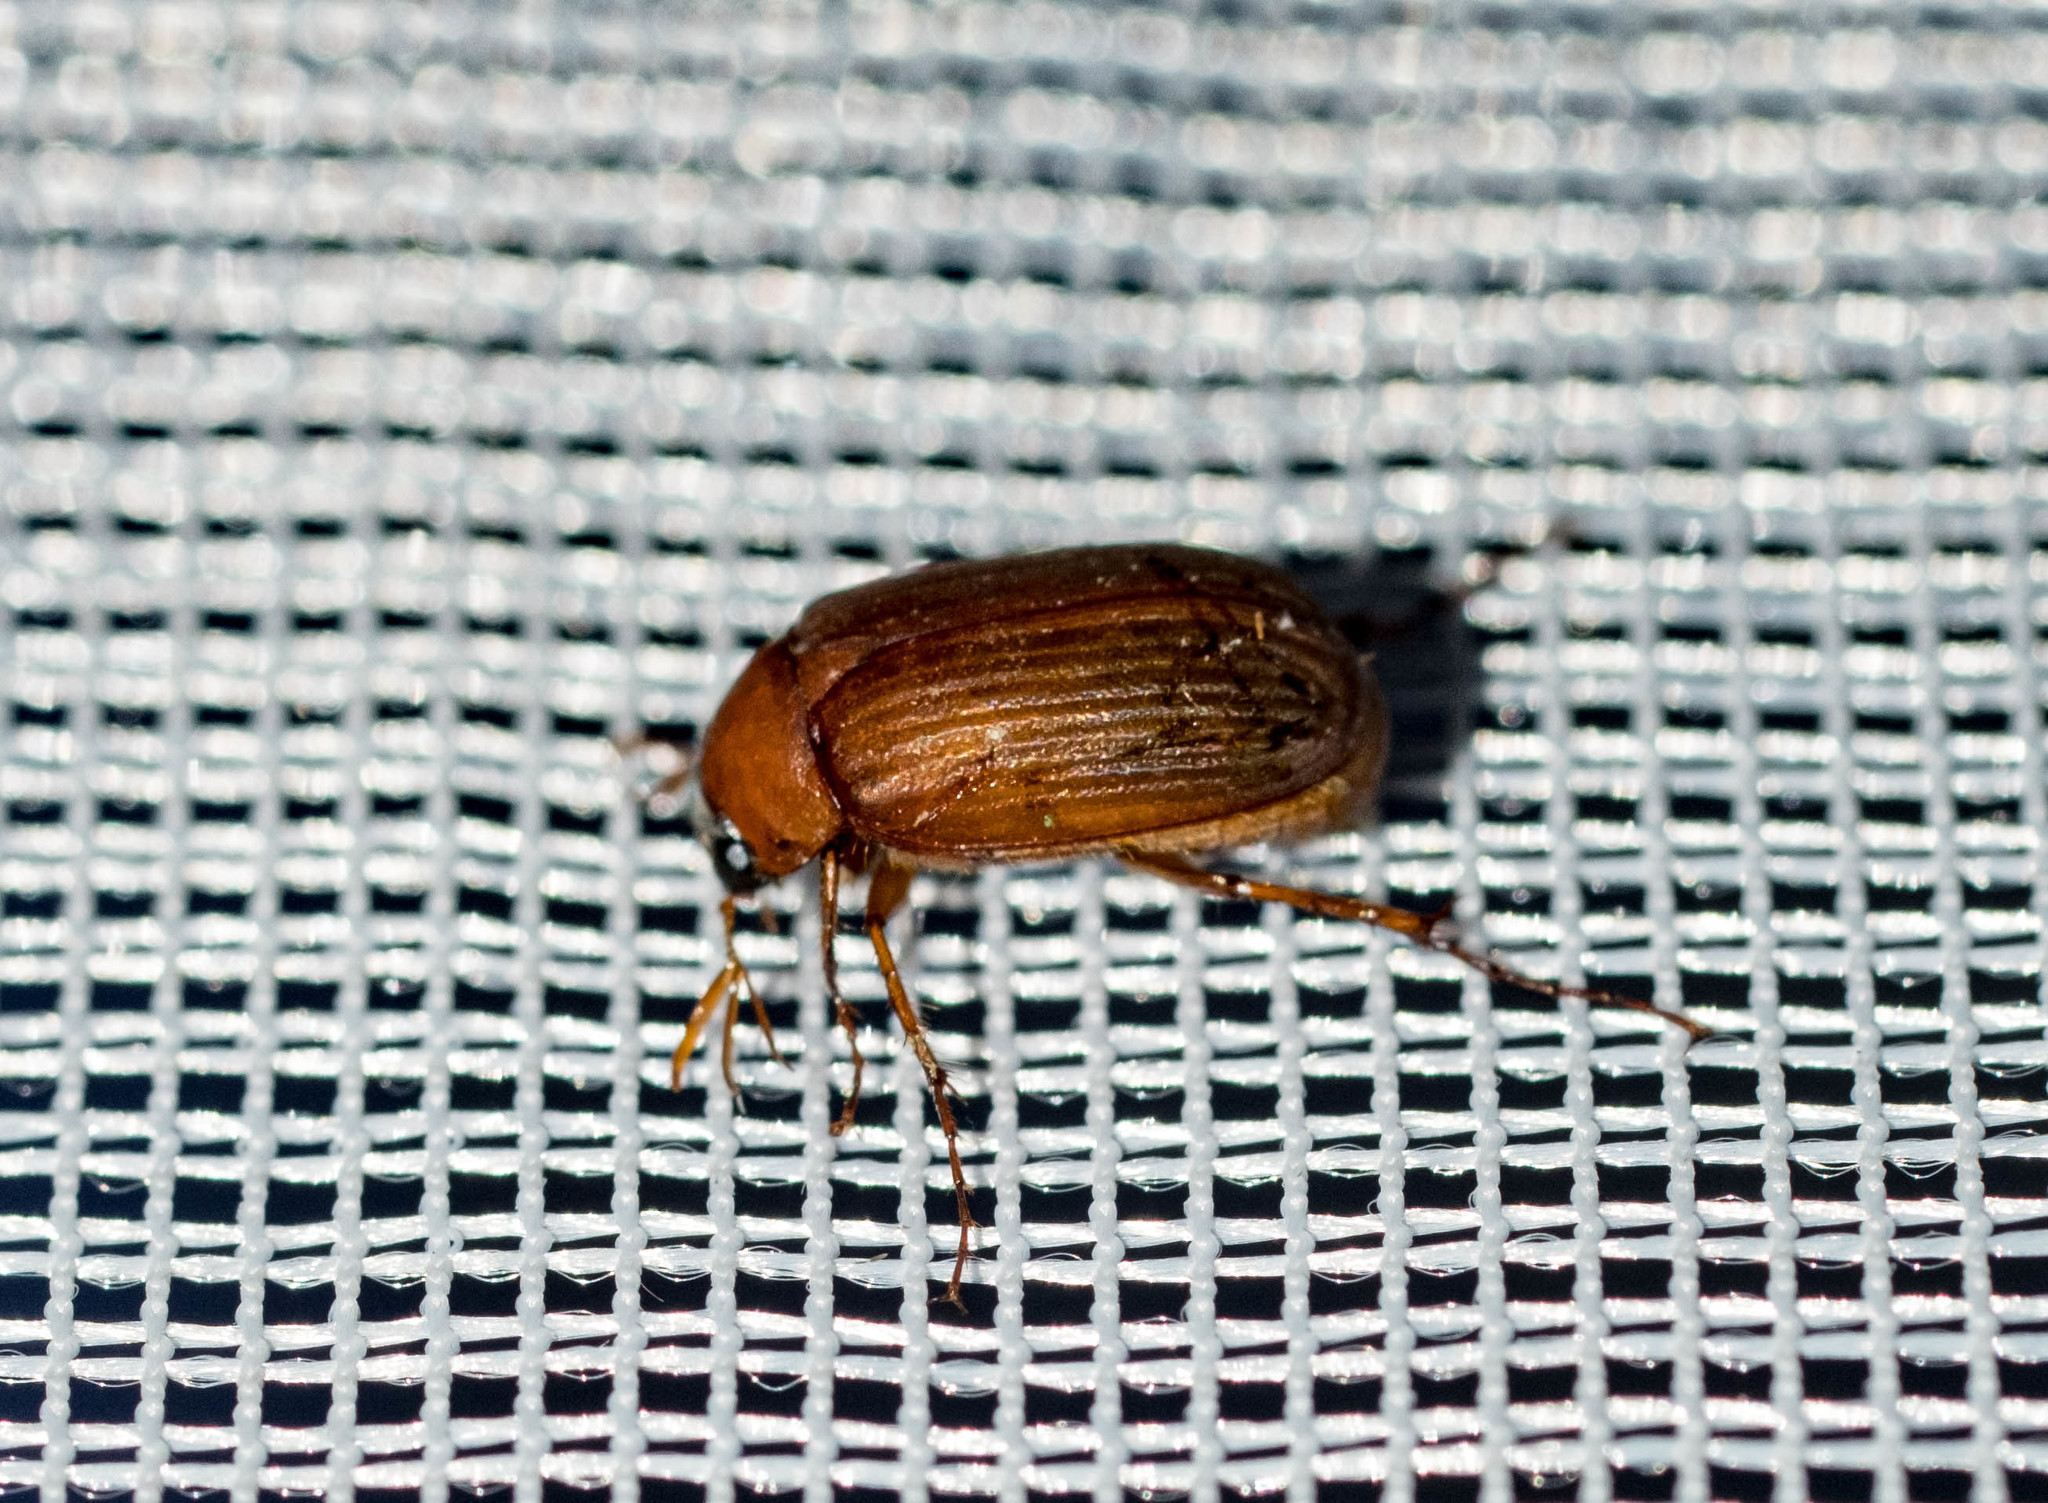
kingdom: Animalia
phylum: Arthropoda
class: Insecta
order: Coleoptera
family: Scarabaeidae
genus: Serica
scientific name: Serica brunnea
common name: Brown chafer
